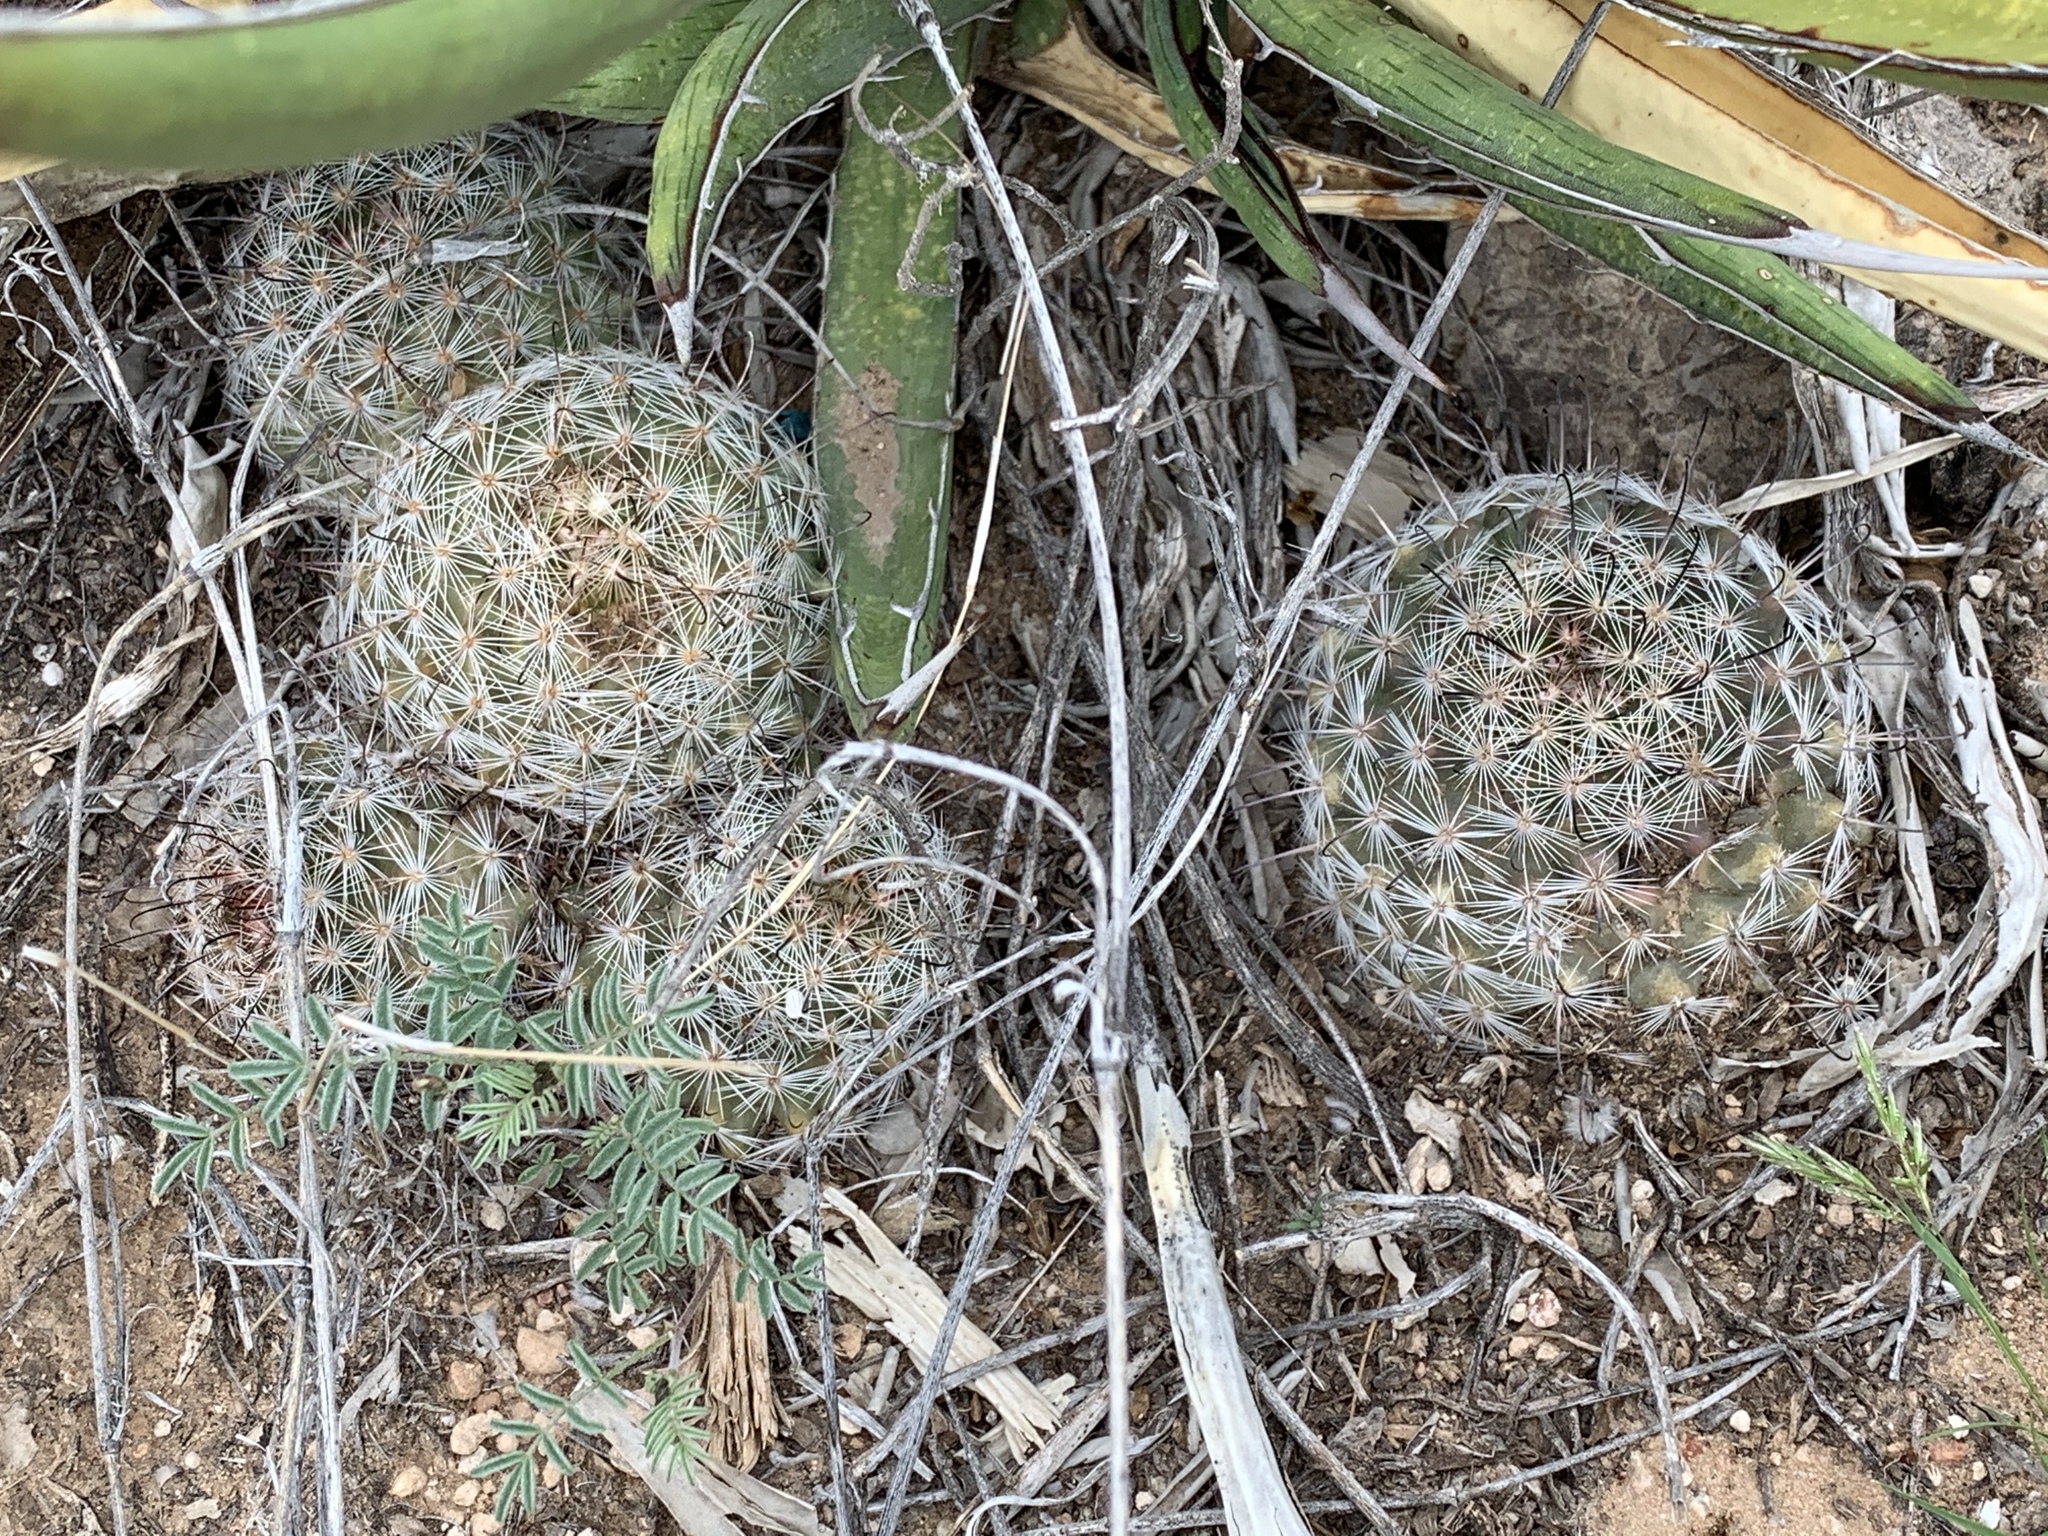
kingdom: Plantae
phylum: Tracheophyta
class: Magnoliopsida
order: Caryophyllales
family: Cactaceae
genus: Cochemiea
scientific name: Cochemiea grahamii
